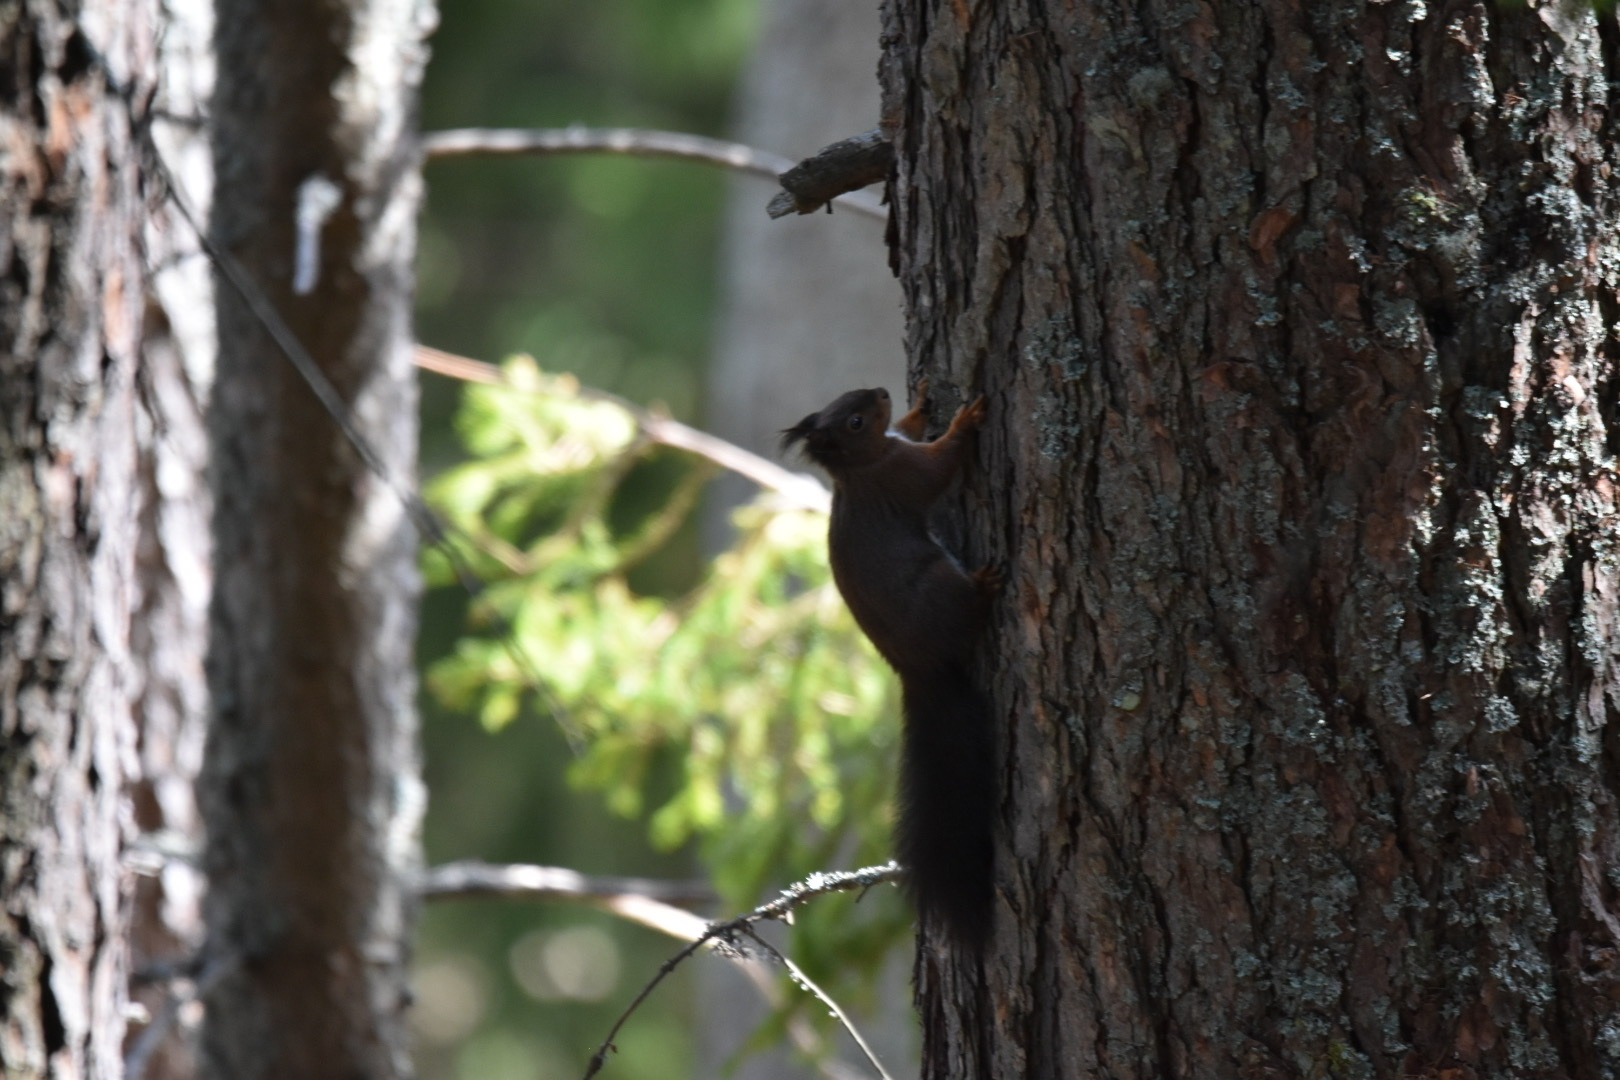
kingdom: Animalia
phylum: Chordata
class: Mammalia
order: Rodentia
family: Sciuridae
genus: Sciurus
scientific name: Sciurus vulgaris
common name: Eurasian red squirrel
